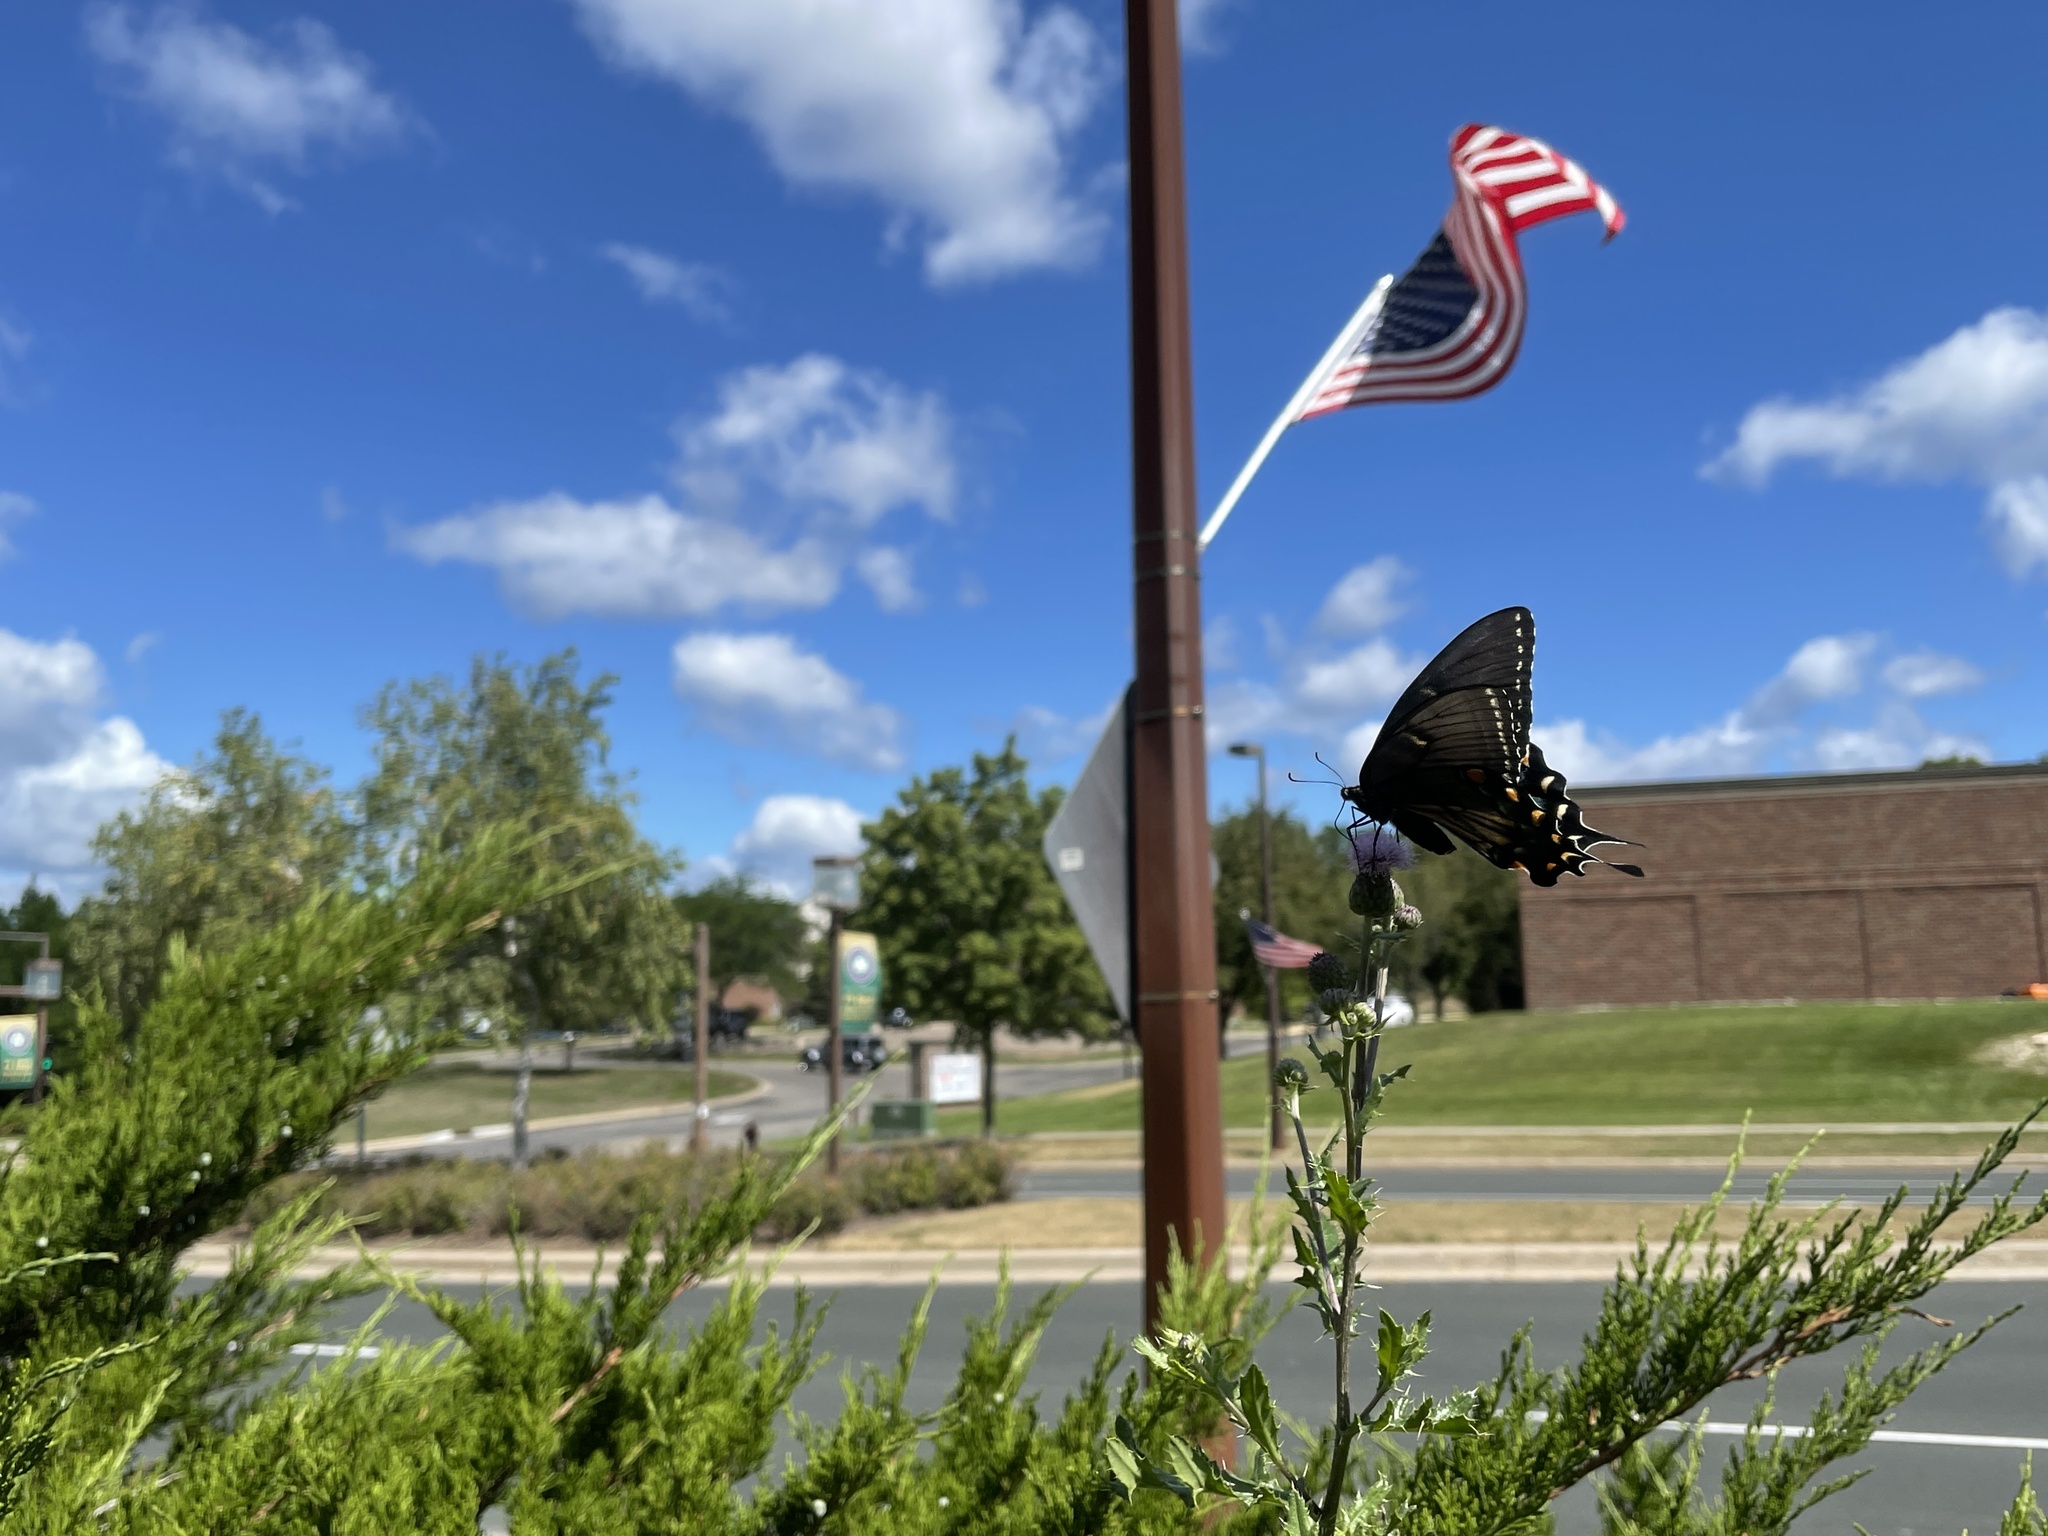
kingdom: Animalia
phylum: Arthropoda
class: Insecta
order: Lepidoptera
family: Papilionidae
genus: Papilio
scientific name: Papilio glaucus
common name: Tiger swallowtail
